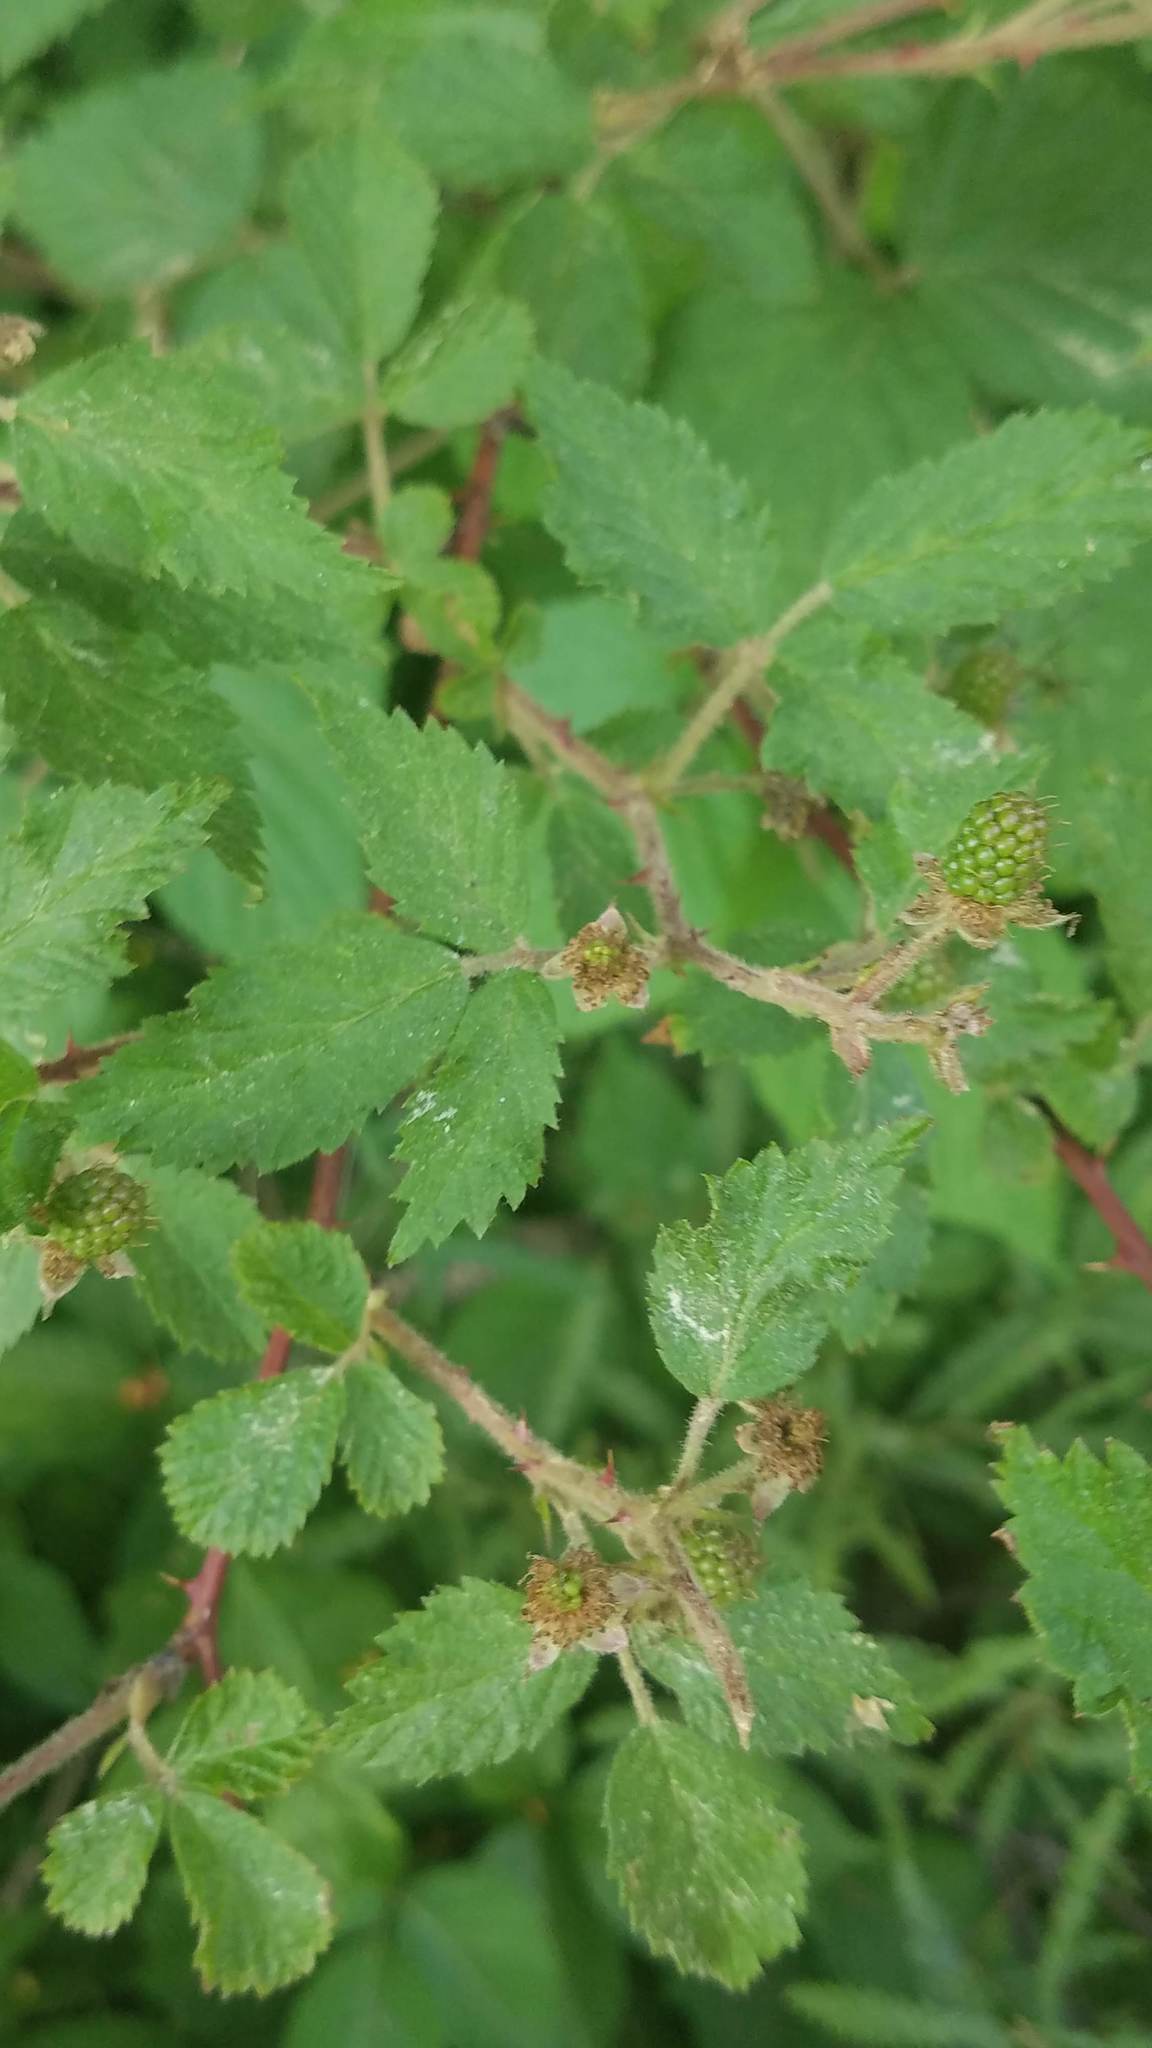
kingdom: Plantae
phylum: Tracheophyta
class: Magnoliopsida
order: Rosales
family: Rosaceae
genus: Rubus
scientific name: Rubus allegheniensis
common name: Allegheny blackberry
